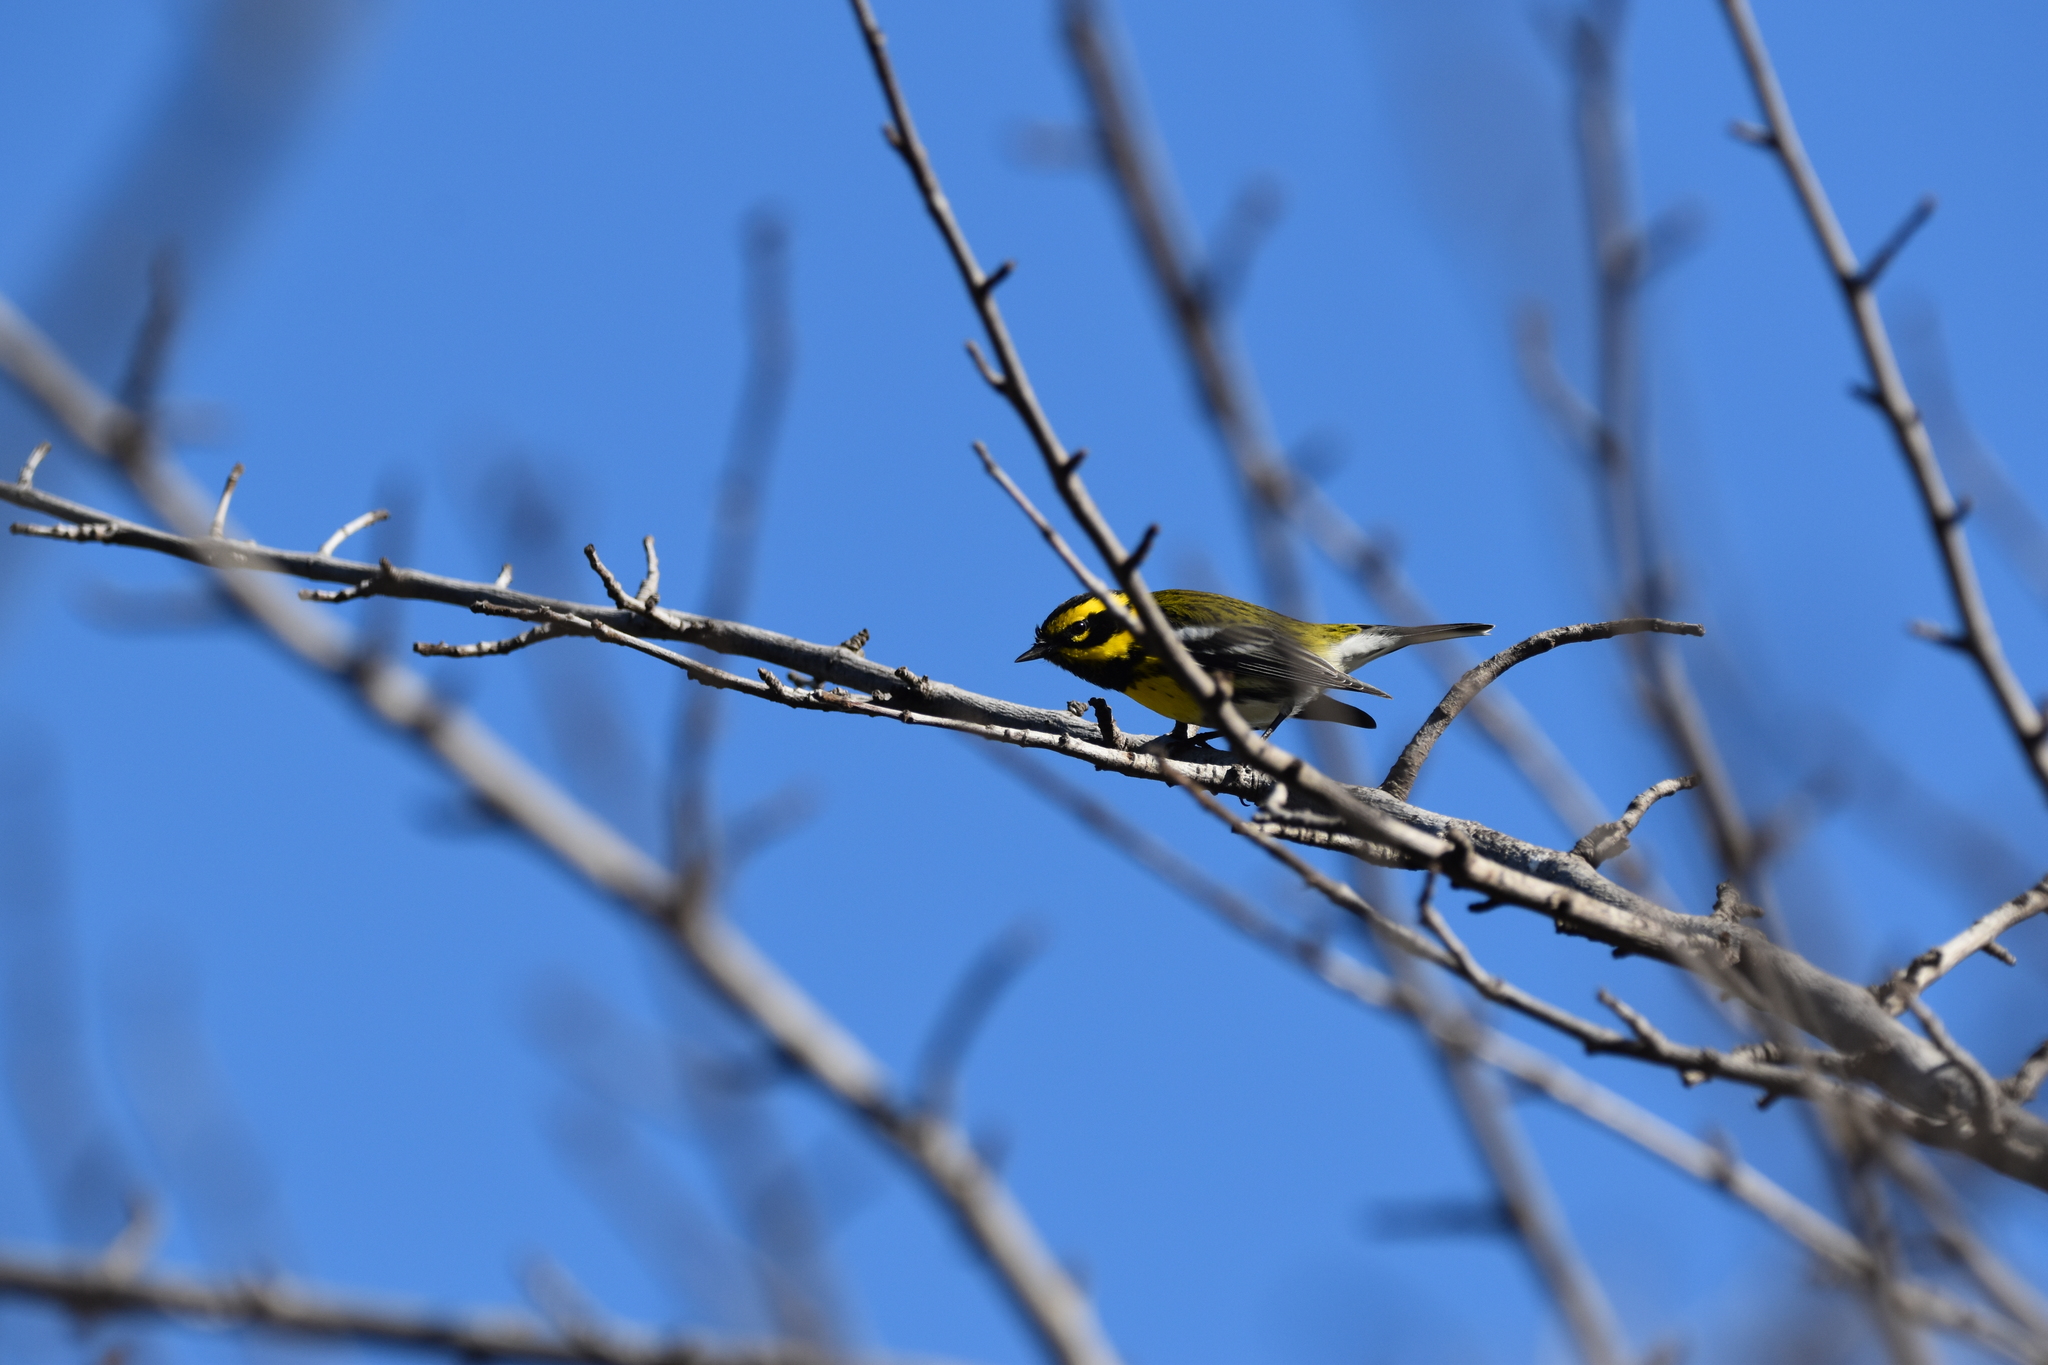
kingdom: Animalia
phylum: Chordata
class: Aves
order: Passeriformes
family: Parulidae
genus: Setophaga
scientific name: Setophaga townsendi
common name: Townsend's warbler
